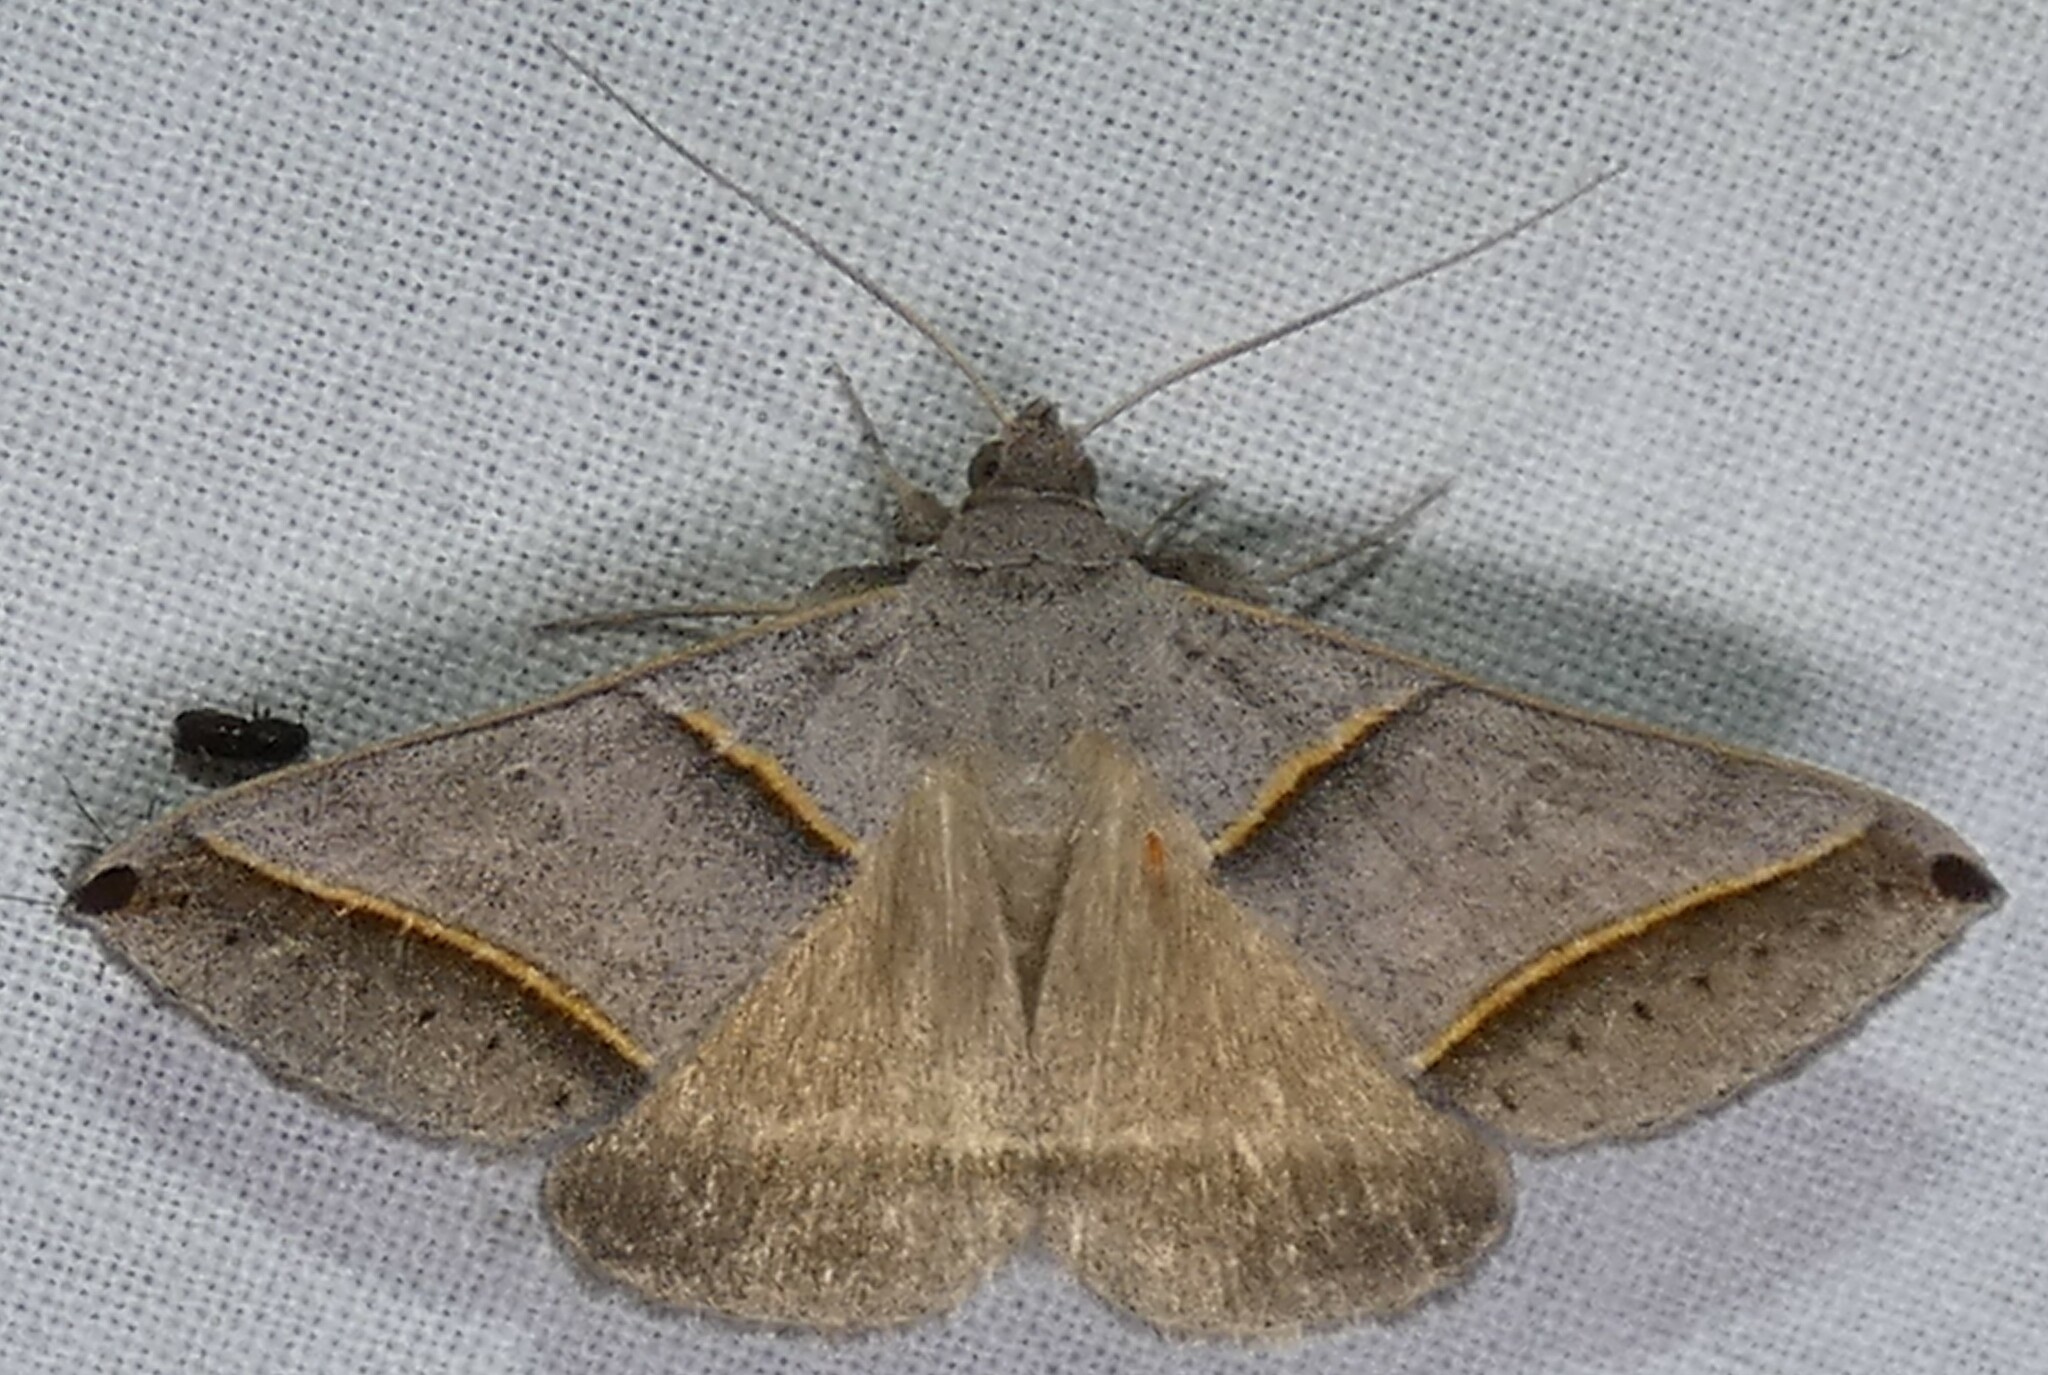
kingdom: Animalia
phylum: Arthropoda
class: Insecta
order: Lepidoptera
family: Erebidae
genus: Ptichodis
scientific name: Ptichodis vinculum
